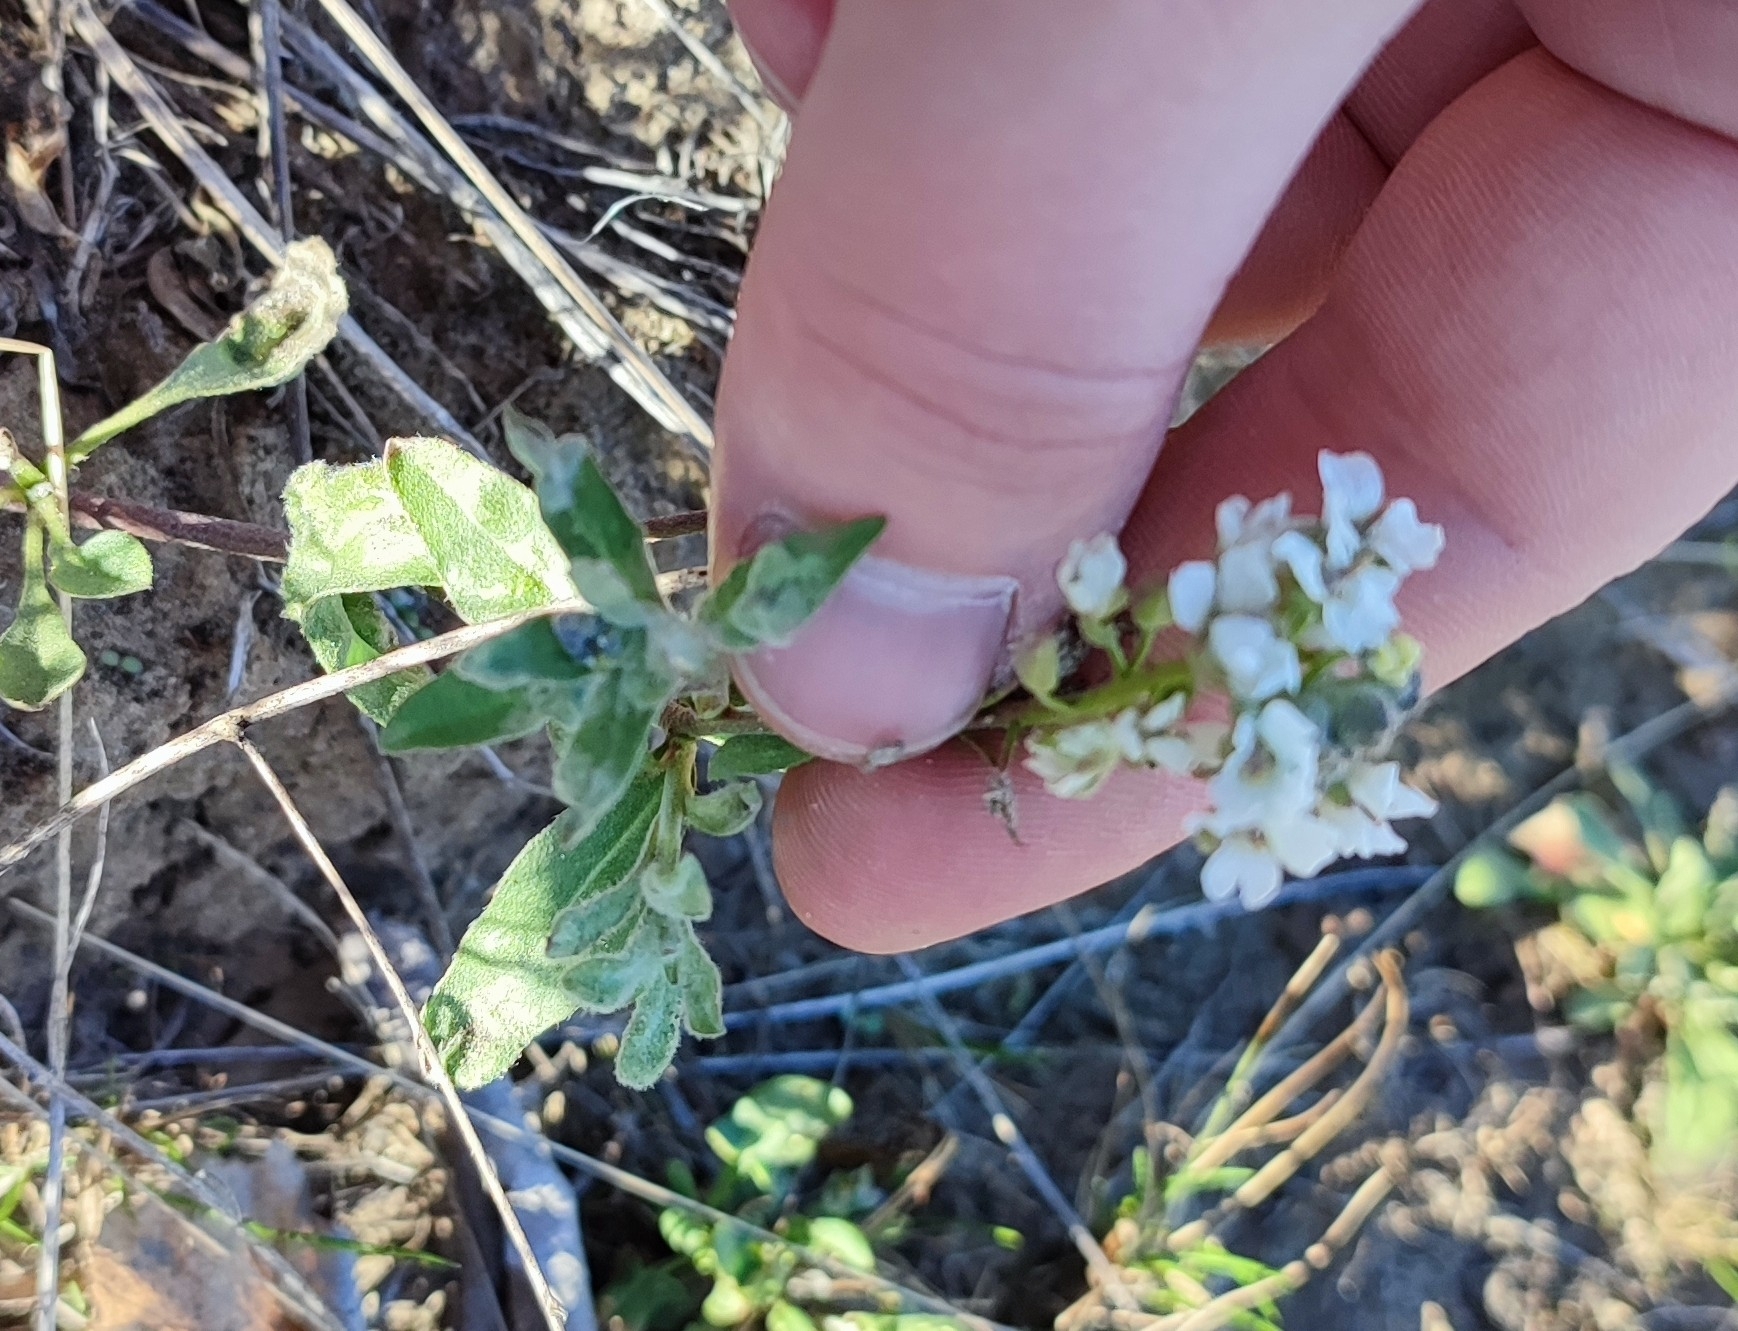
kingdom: Plantae
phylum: Tracheophyta
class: Magnoliopsida
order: Brassicales
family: Brassicaceae
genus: Berteroa
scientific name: Berteroa incana
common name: Hoary alison
